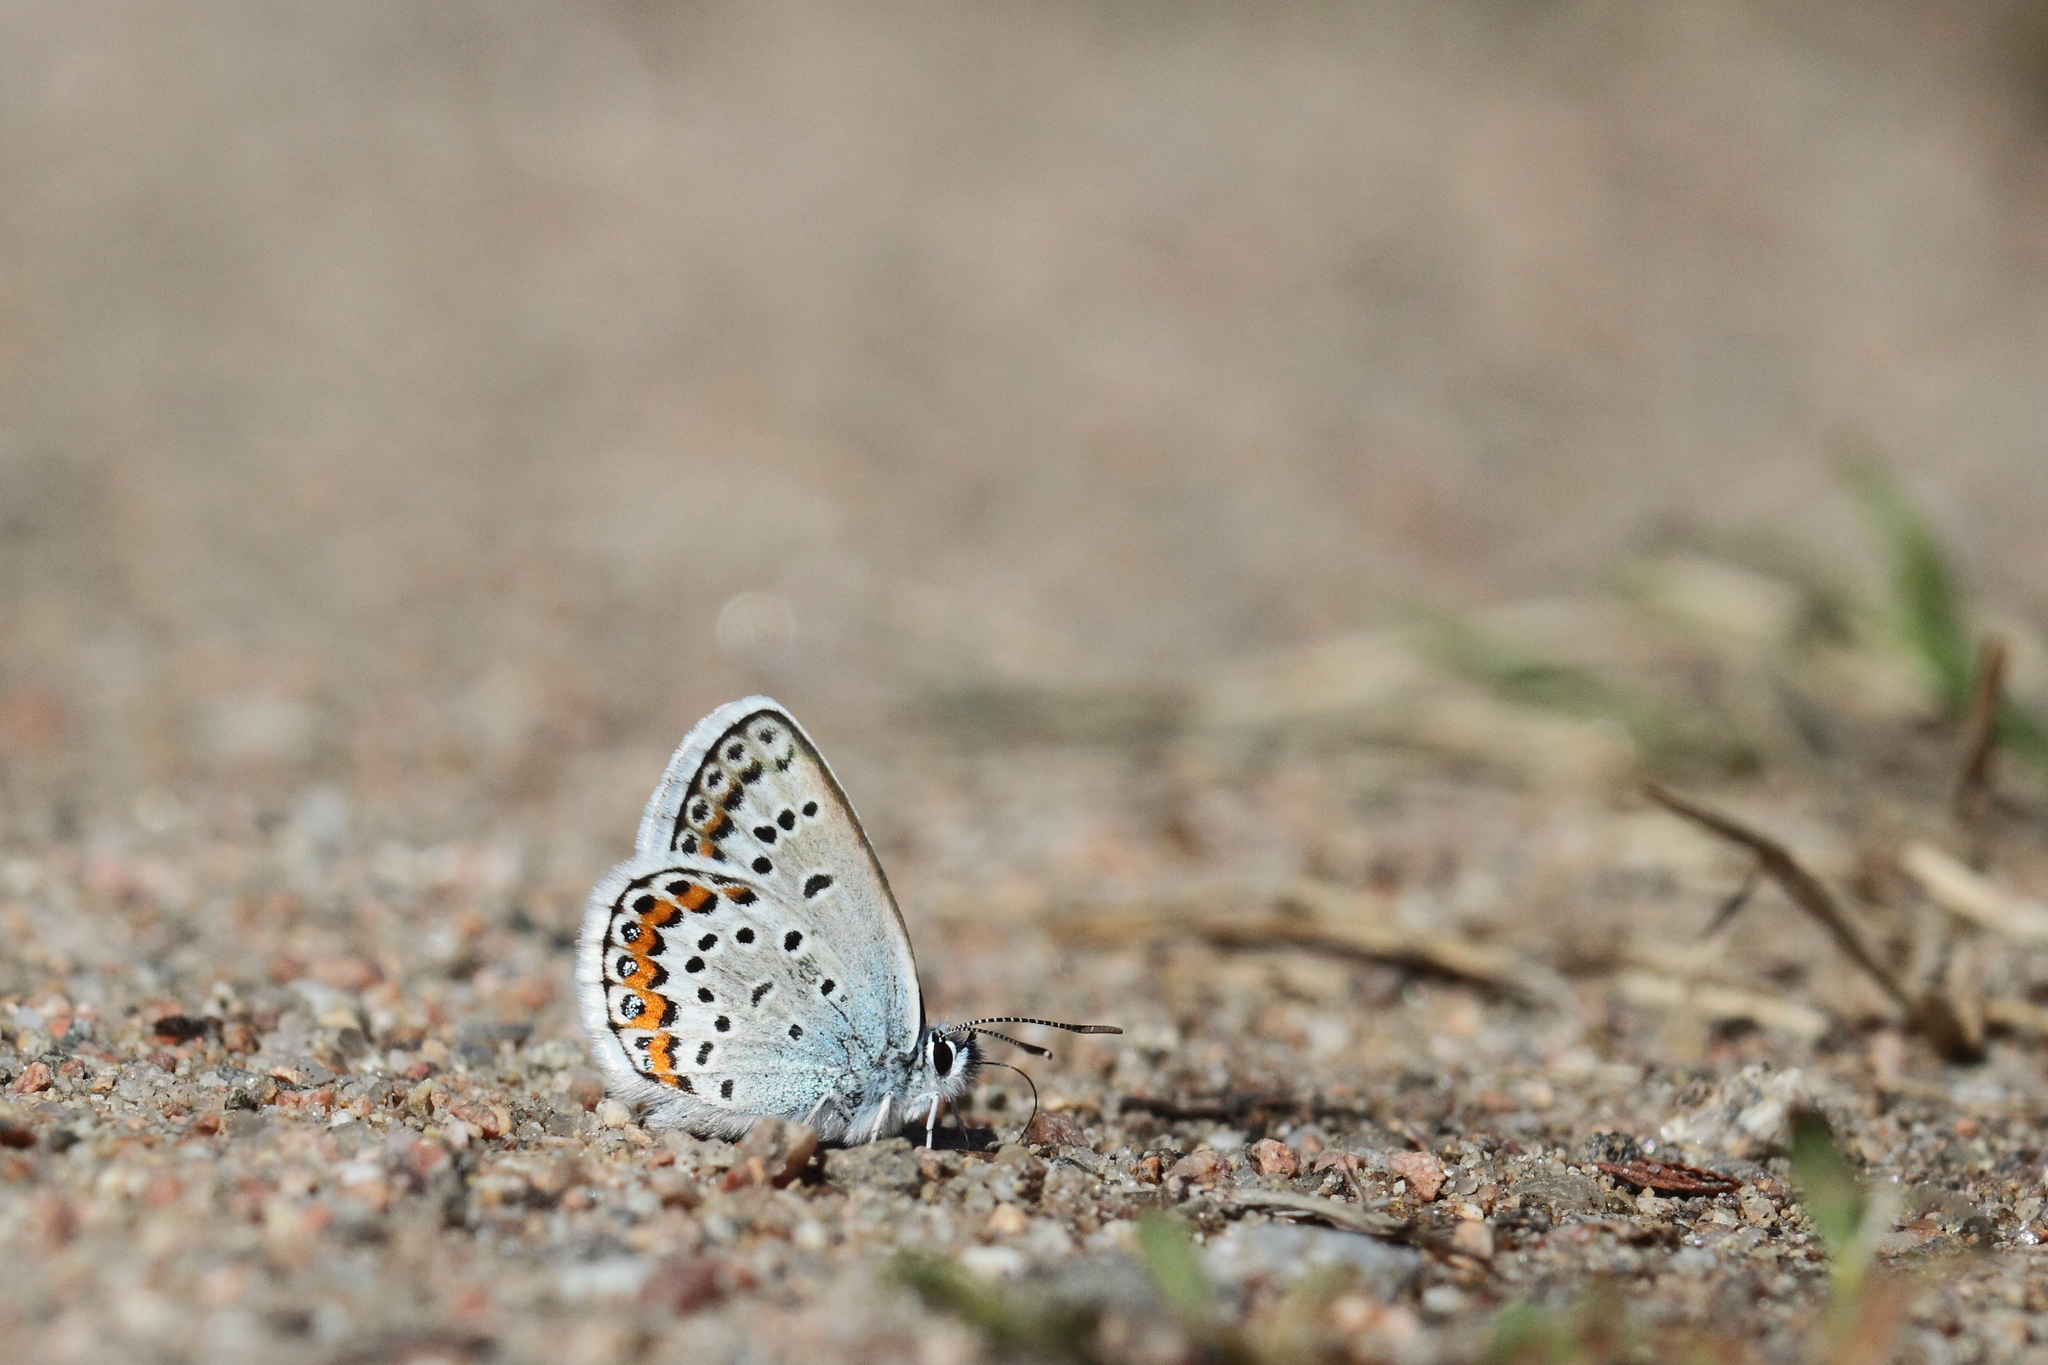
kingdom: Animalia
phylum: Arthropoda
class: Insecta
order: Lepidoptera
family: Lycaenidae
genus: Plebejus
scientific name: Plebejus argus
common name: Silver-studded blue
